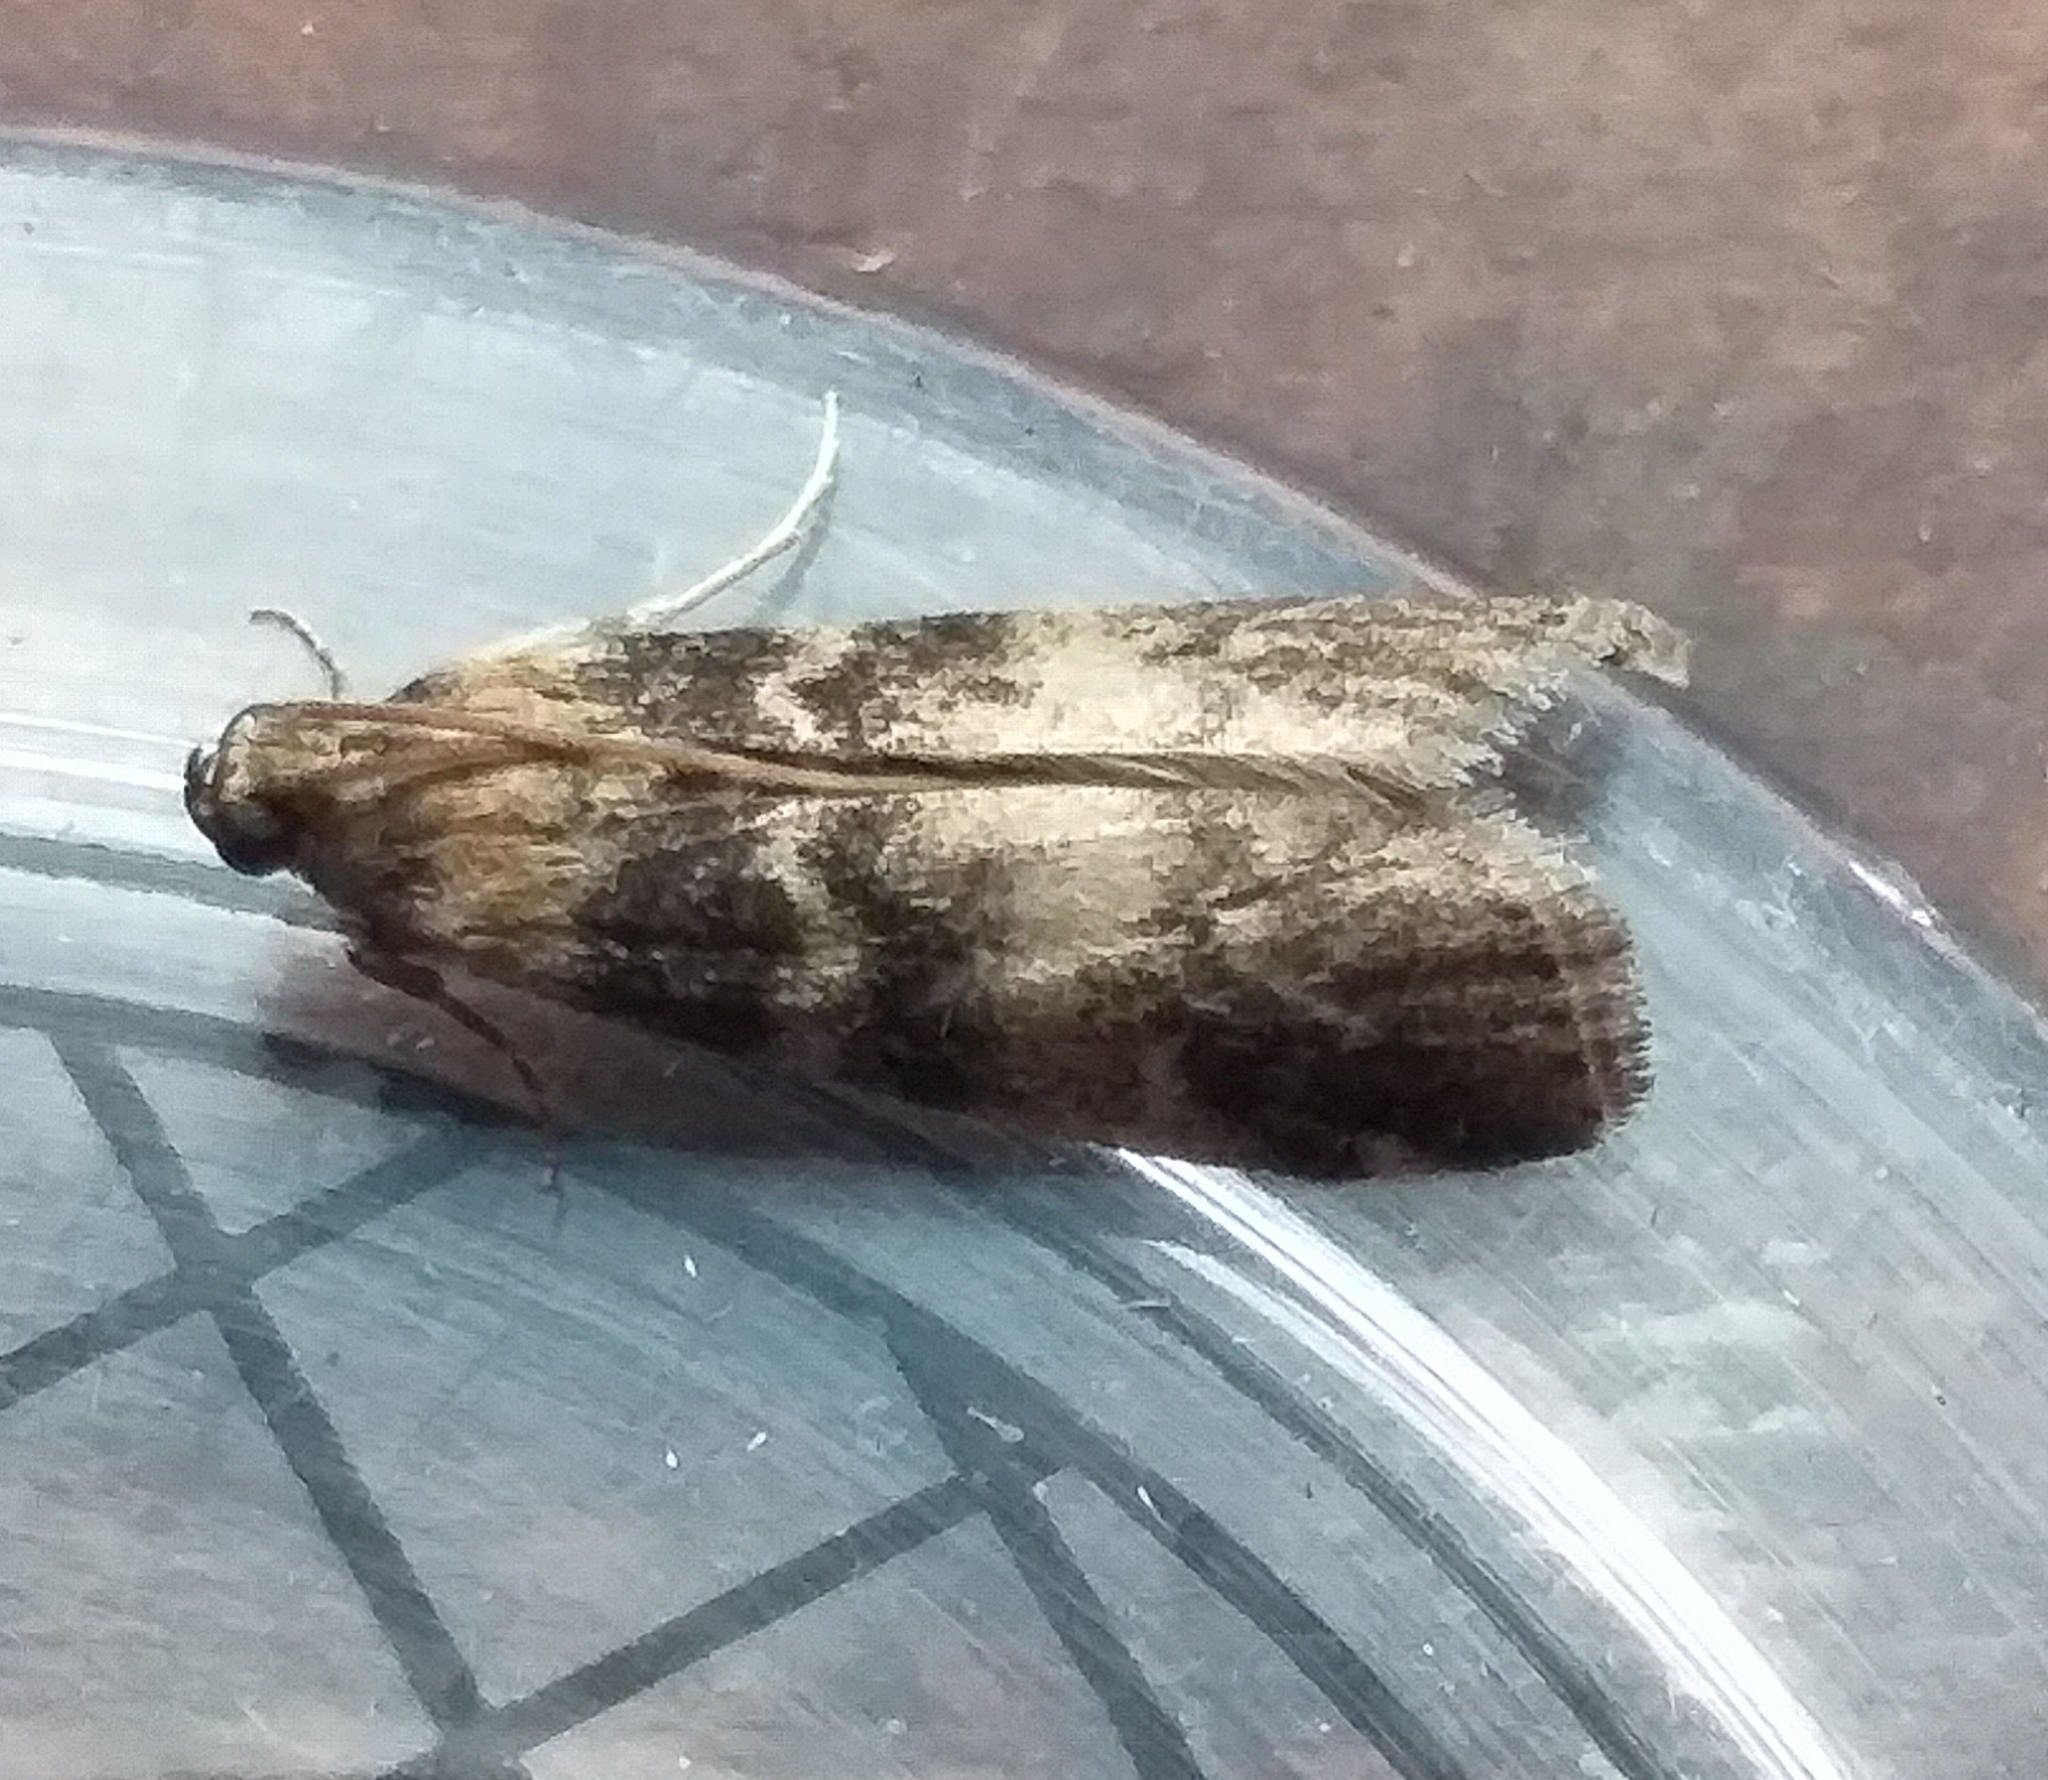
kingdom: Animalia
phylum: Arthropoda
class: Insecta
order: Lepidoptera
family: Pyralidae
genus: Euzophera
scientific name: Euzophera pinguis
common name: Ash-bark knot-horn
